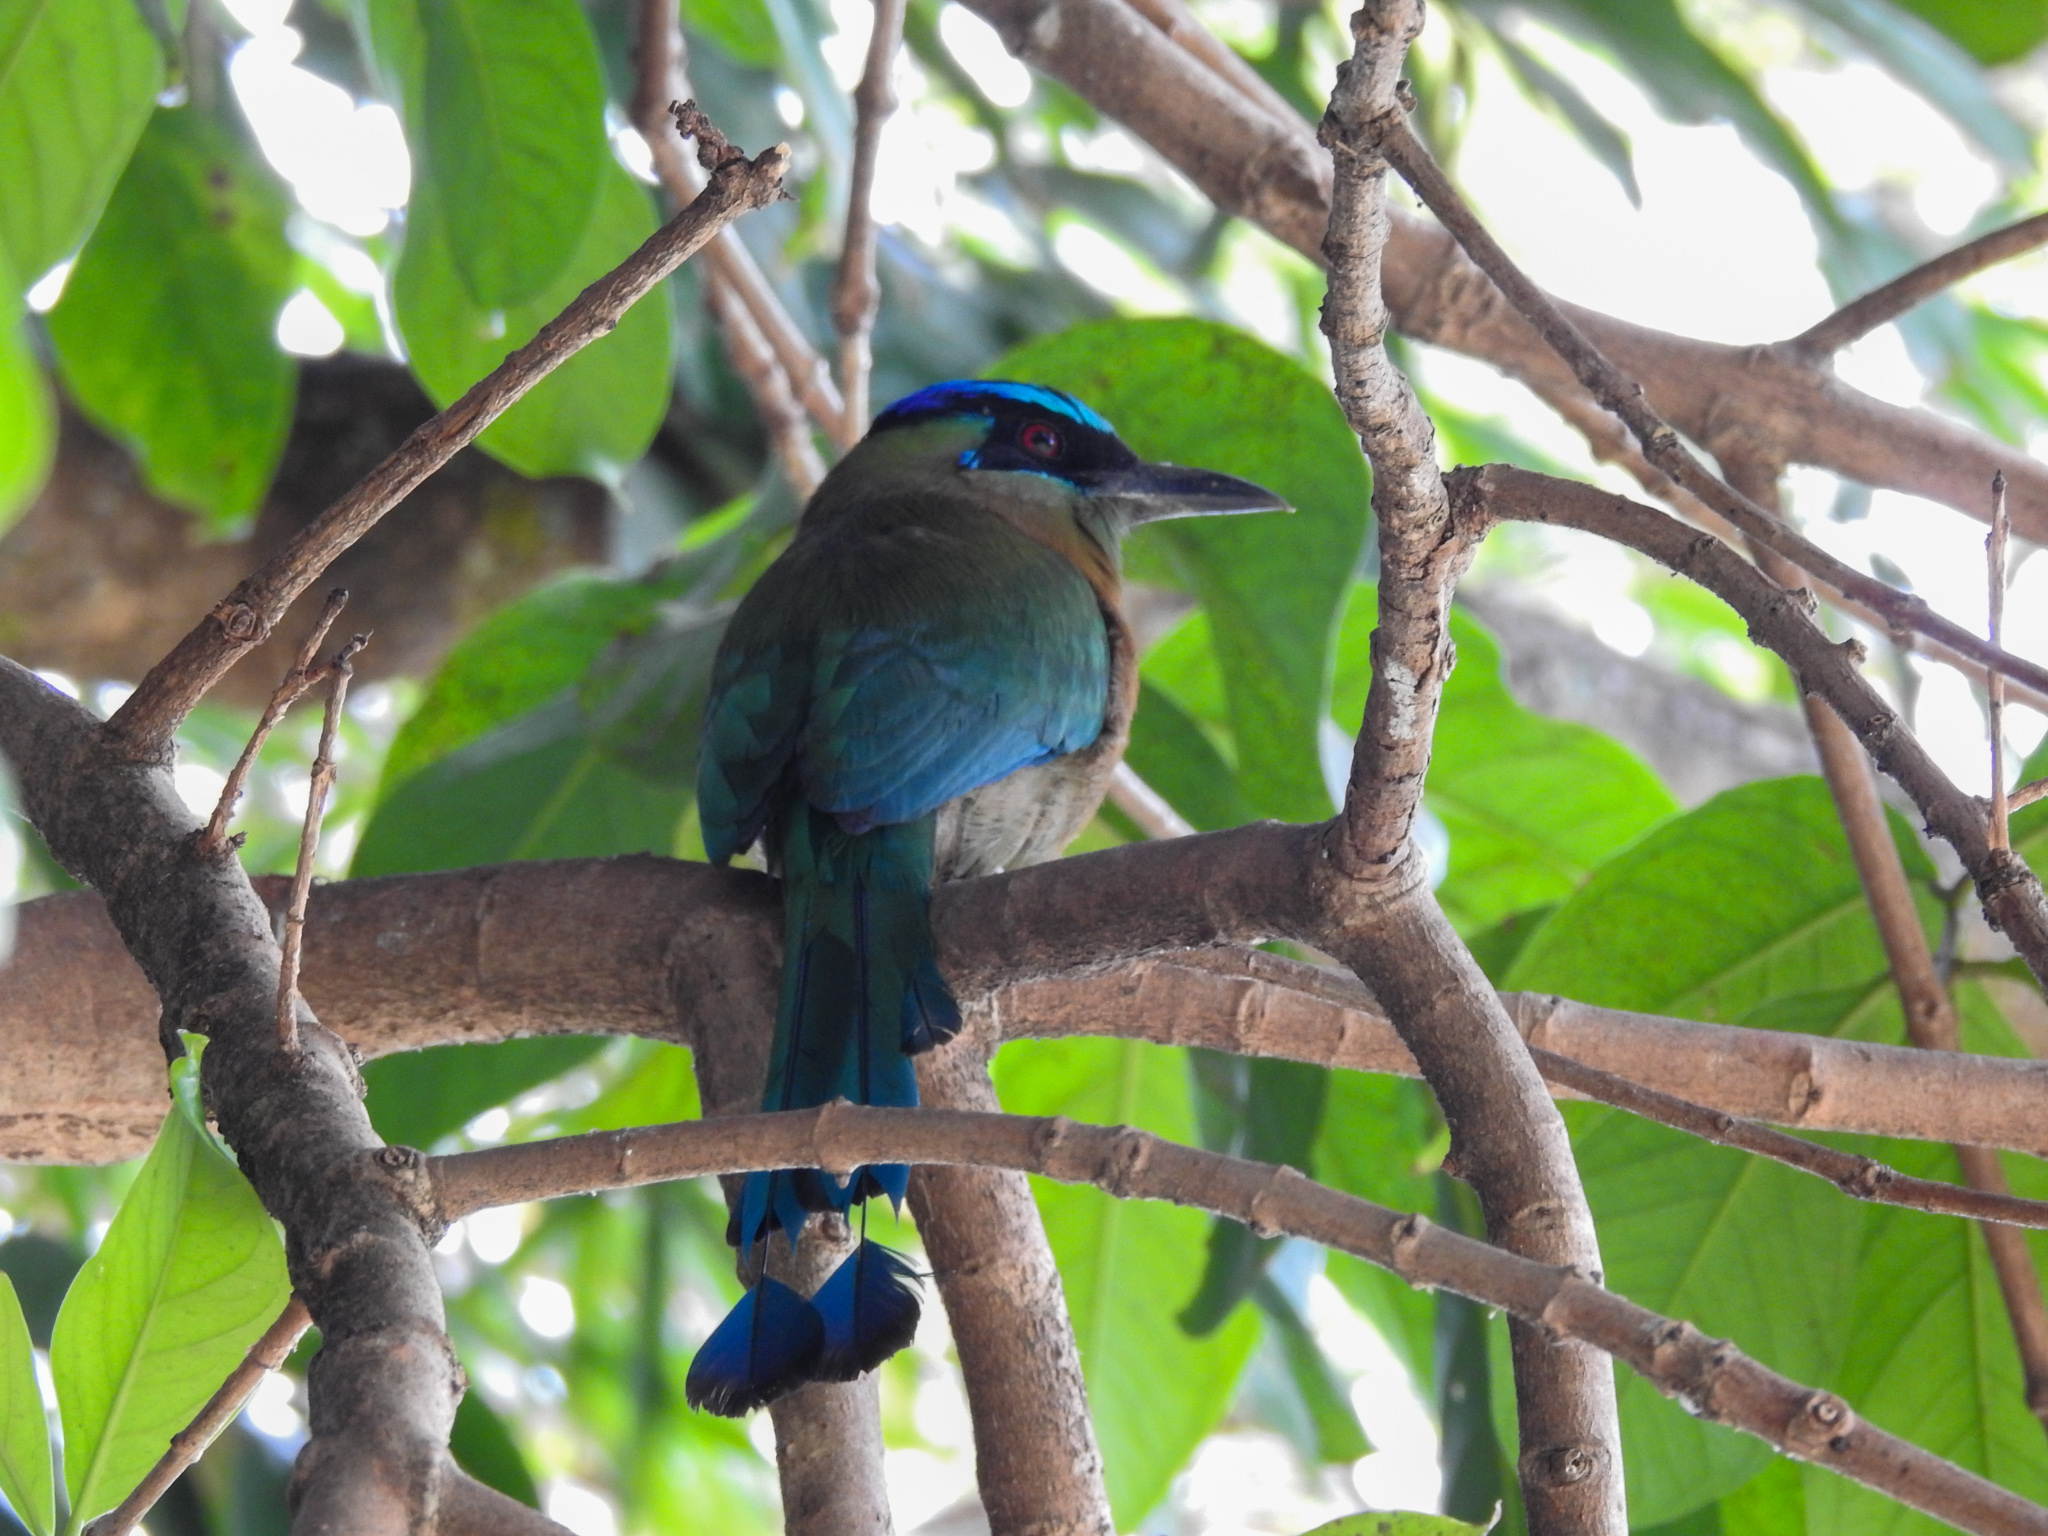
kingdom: Animalia
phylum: Chordata
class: Aves
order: Coraciiformes
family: Momotidae
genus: Momotus
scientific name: Momotus lessonii
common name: Lesson's motmot
